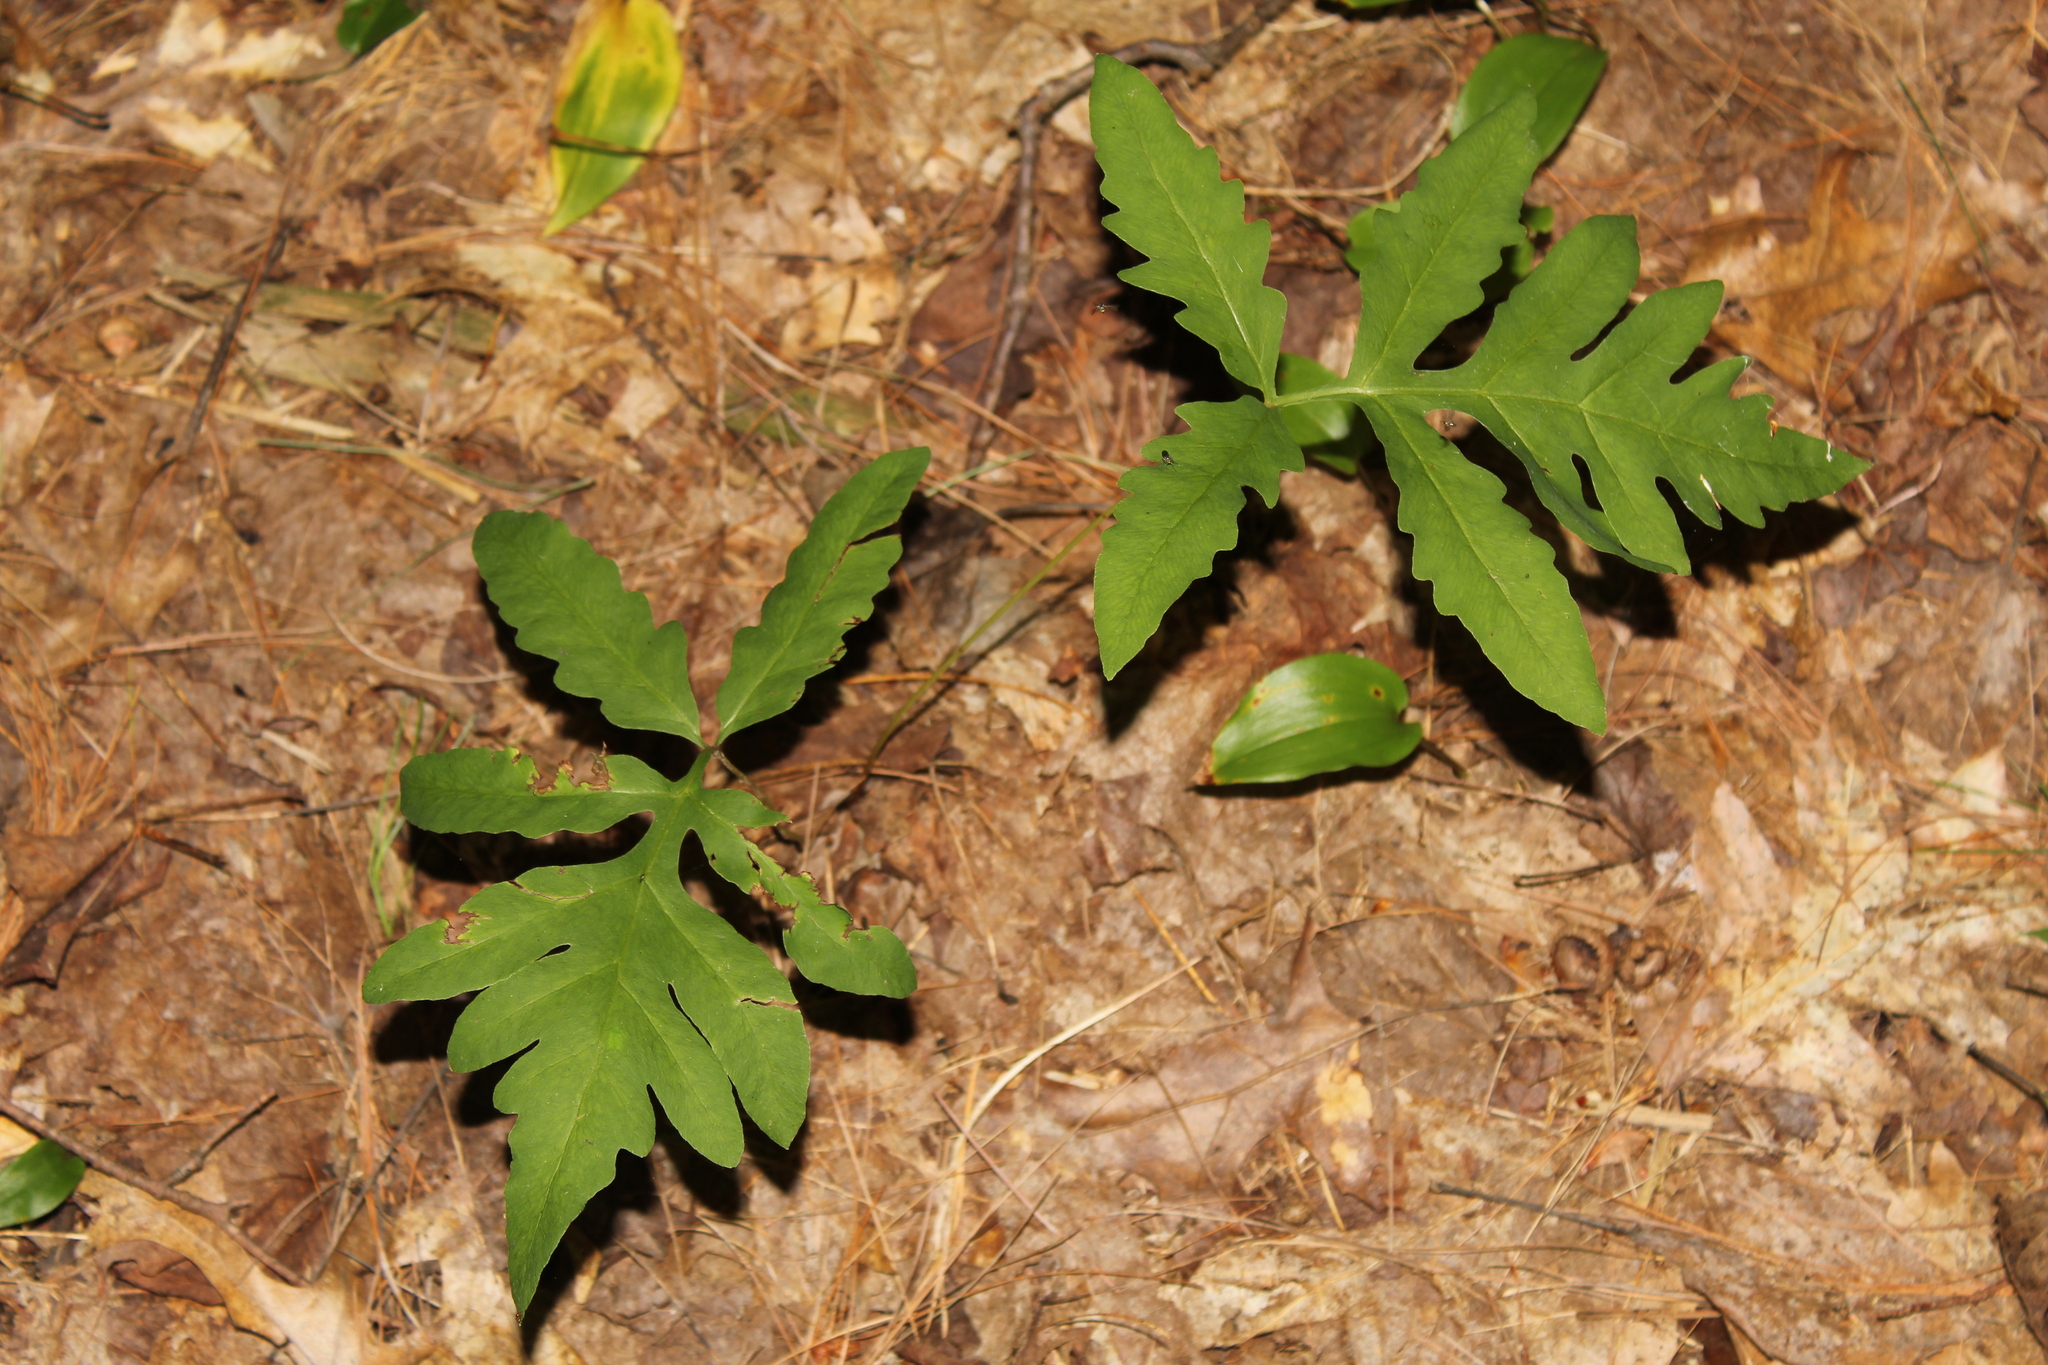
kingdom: Plantae
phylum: Tracheophyta
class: Polypodiopsida
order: Polypodiales
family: Onocleaceae
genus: Onoclea
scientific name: Onoclea sensibilis
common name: Sensitive fern
